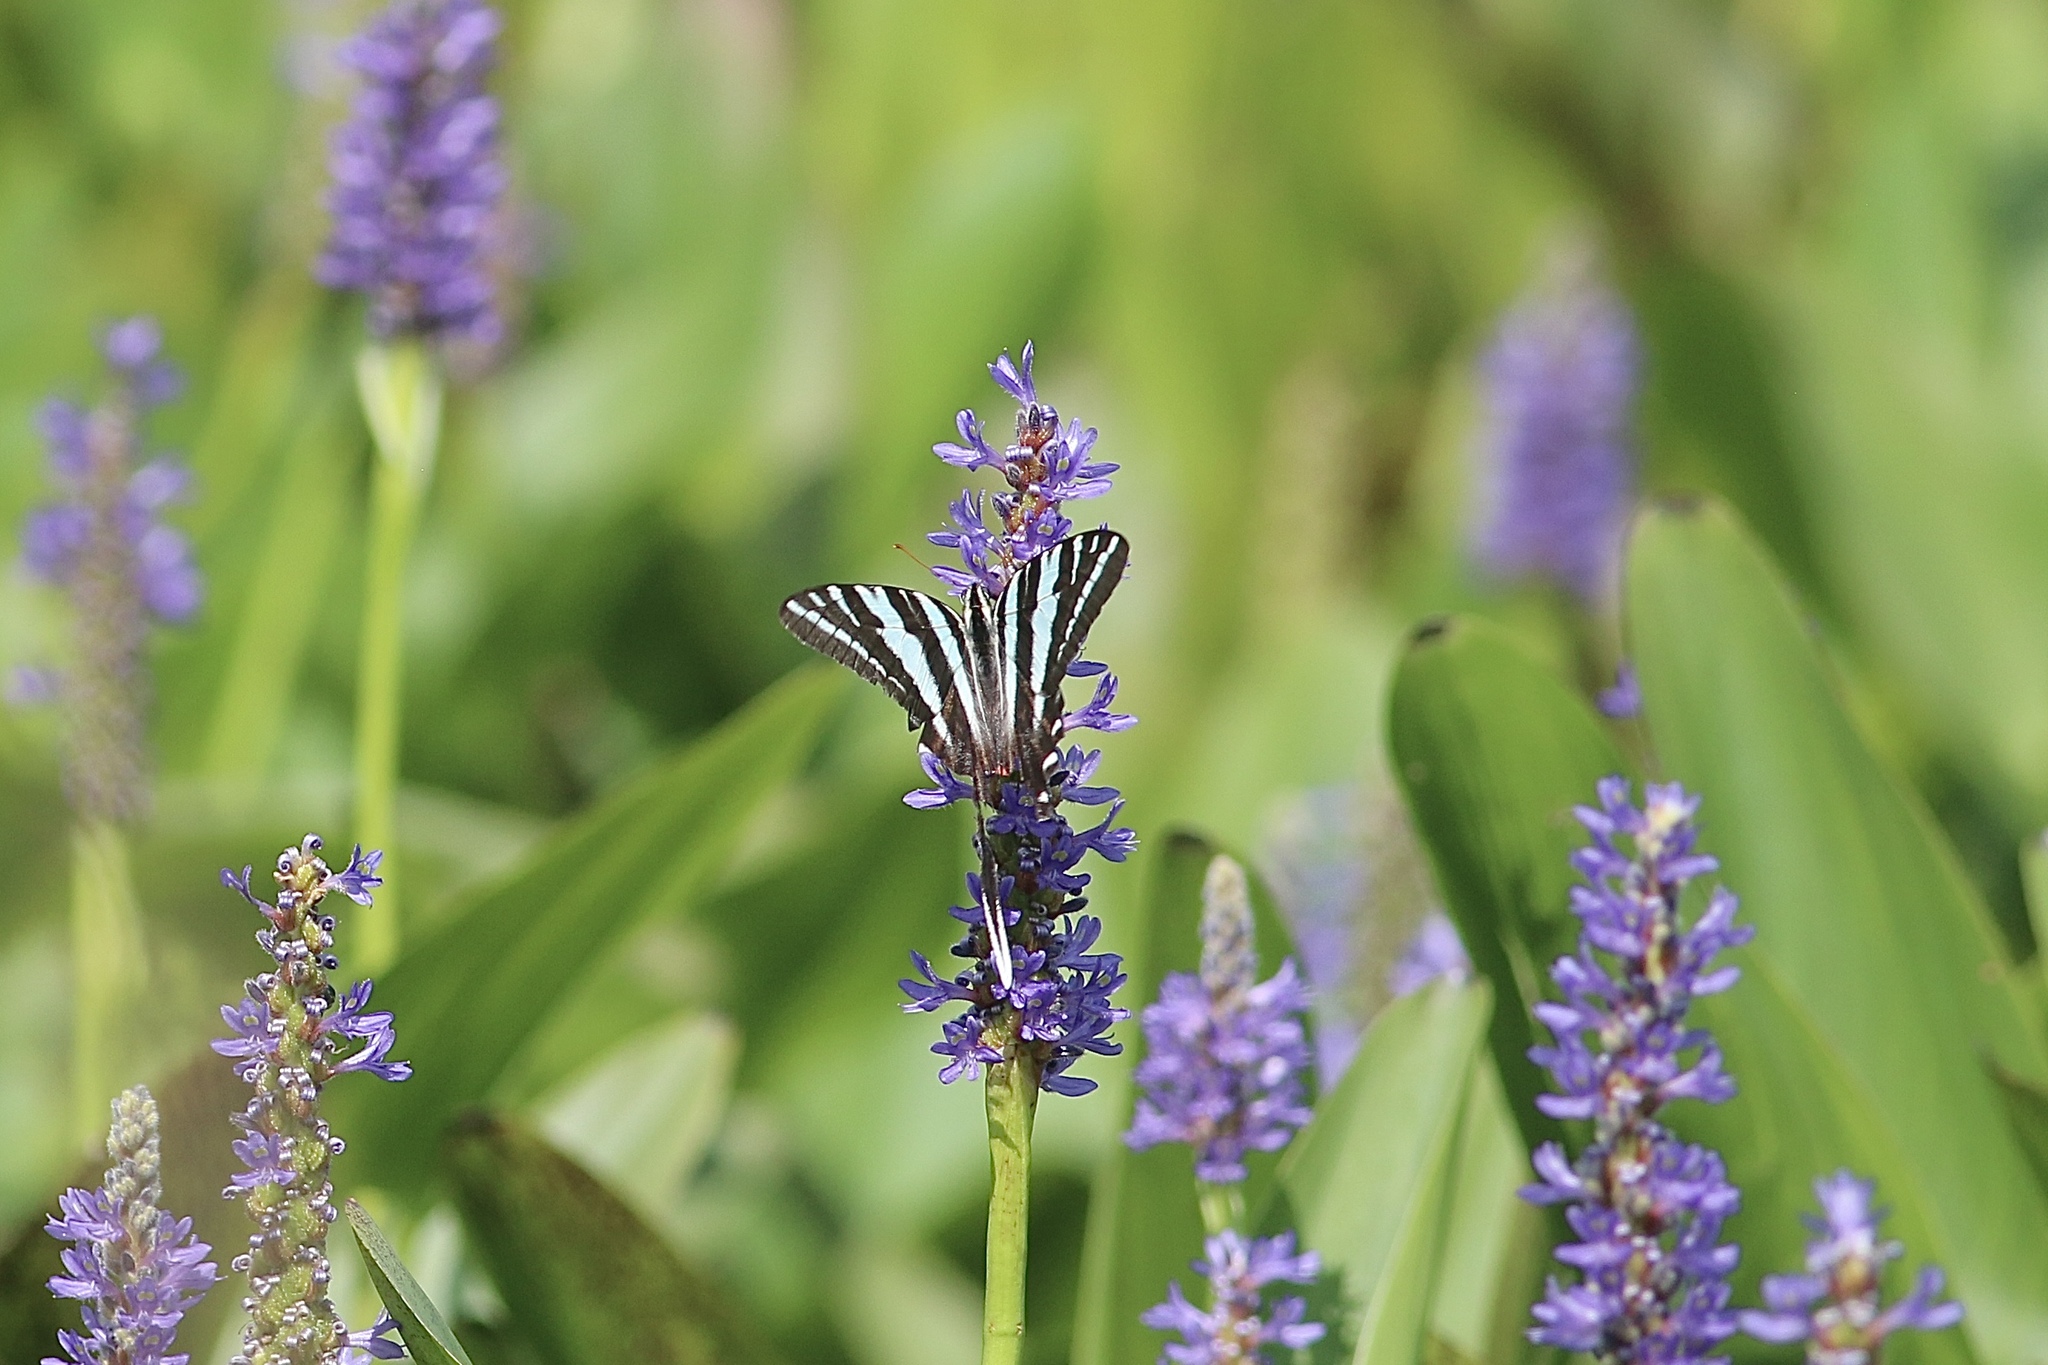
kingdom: Animalia
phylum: Arthropoda
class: Insecta
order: Lepidoptera
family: Papilionidae
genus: Protographium
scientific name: Protographium marcellus
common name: Zebra swallowtail
